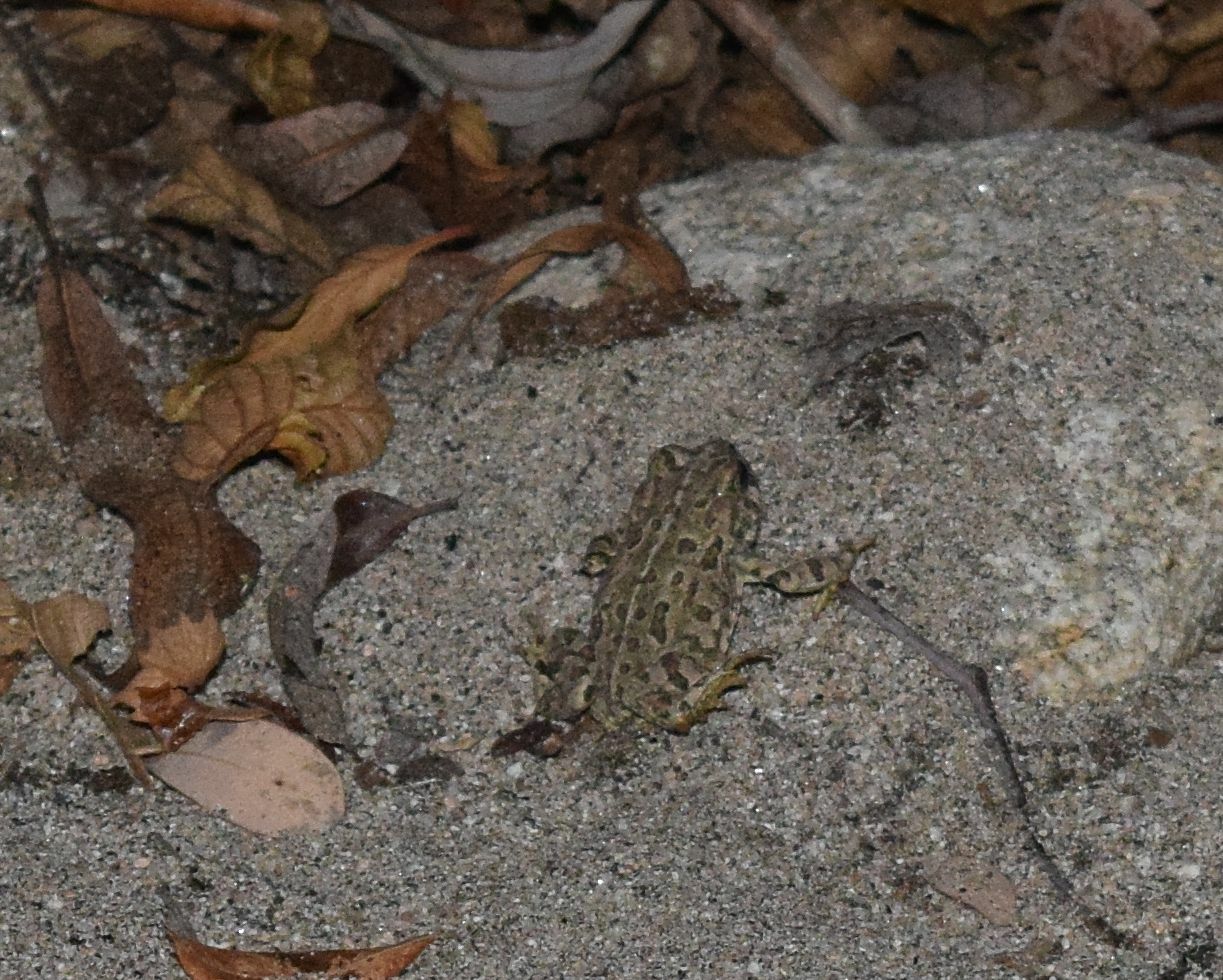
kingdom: Animalia
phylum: Chordata
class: Amphibia
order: Anura
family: Bufonidae
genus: Anaxyrus
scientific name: Anaxyrus boreas
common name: Western toad
